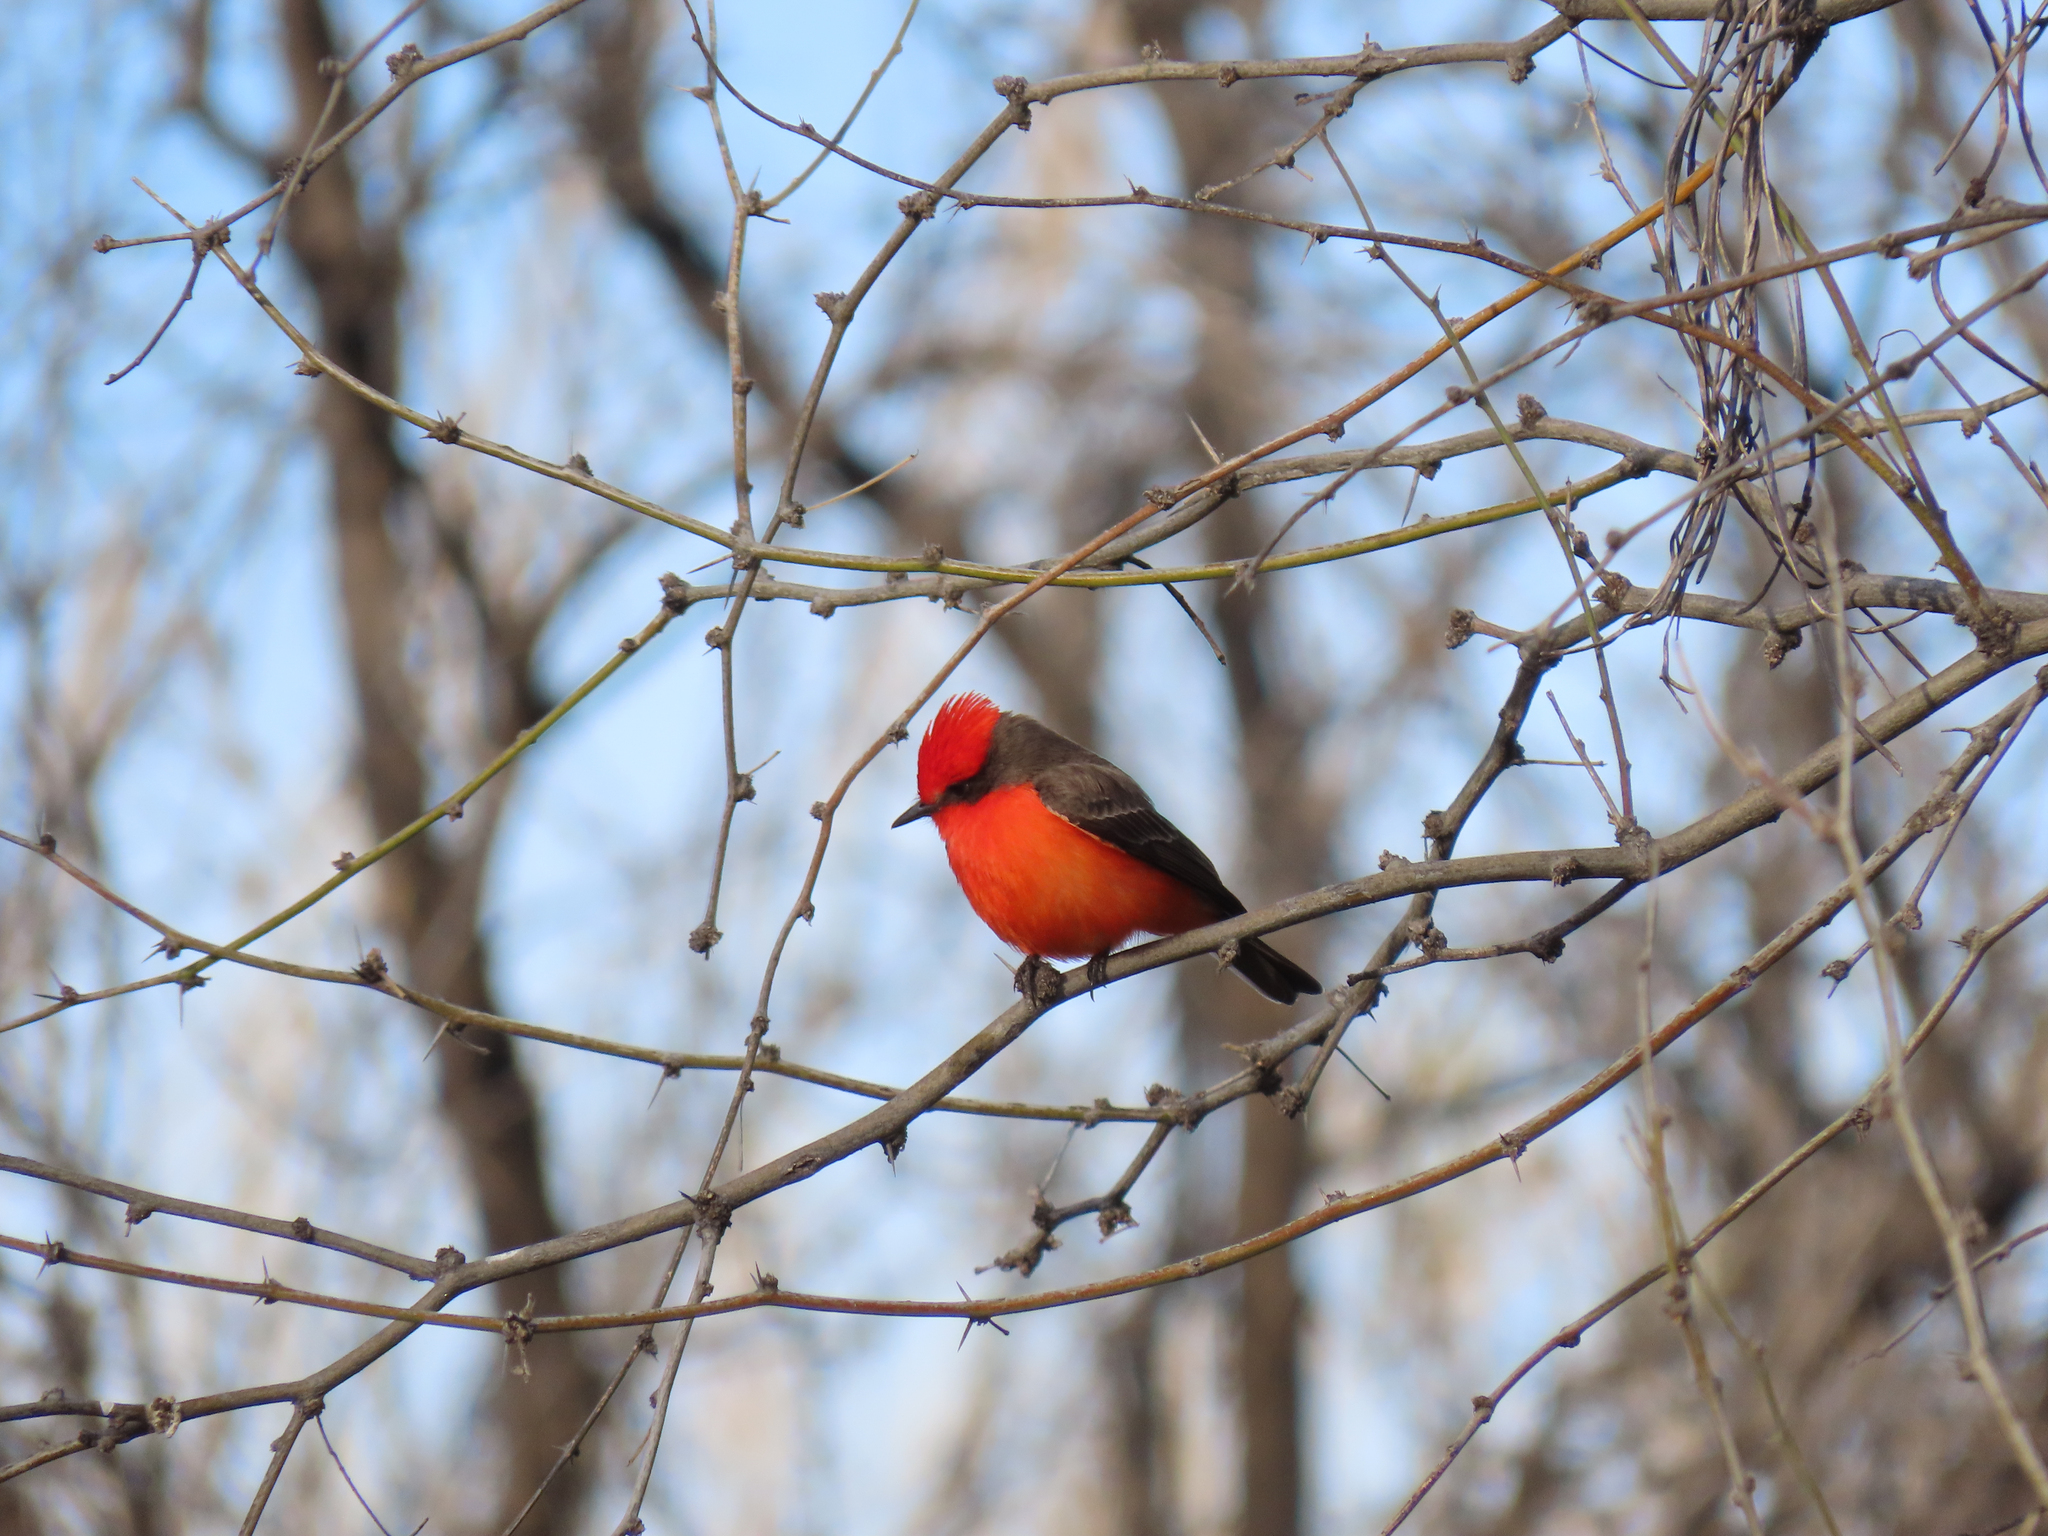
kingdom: Animalia
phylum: Chordata
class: Aves
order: Passeriformes
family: Tyrannidae
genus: Pyrocephalus
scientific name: Pyrocephalus rubinus
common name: Vermilion flycatcher
